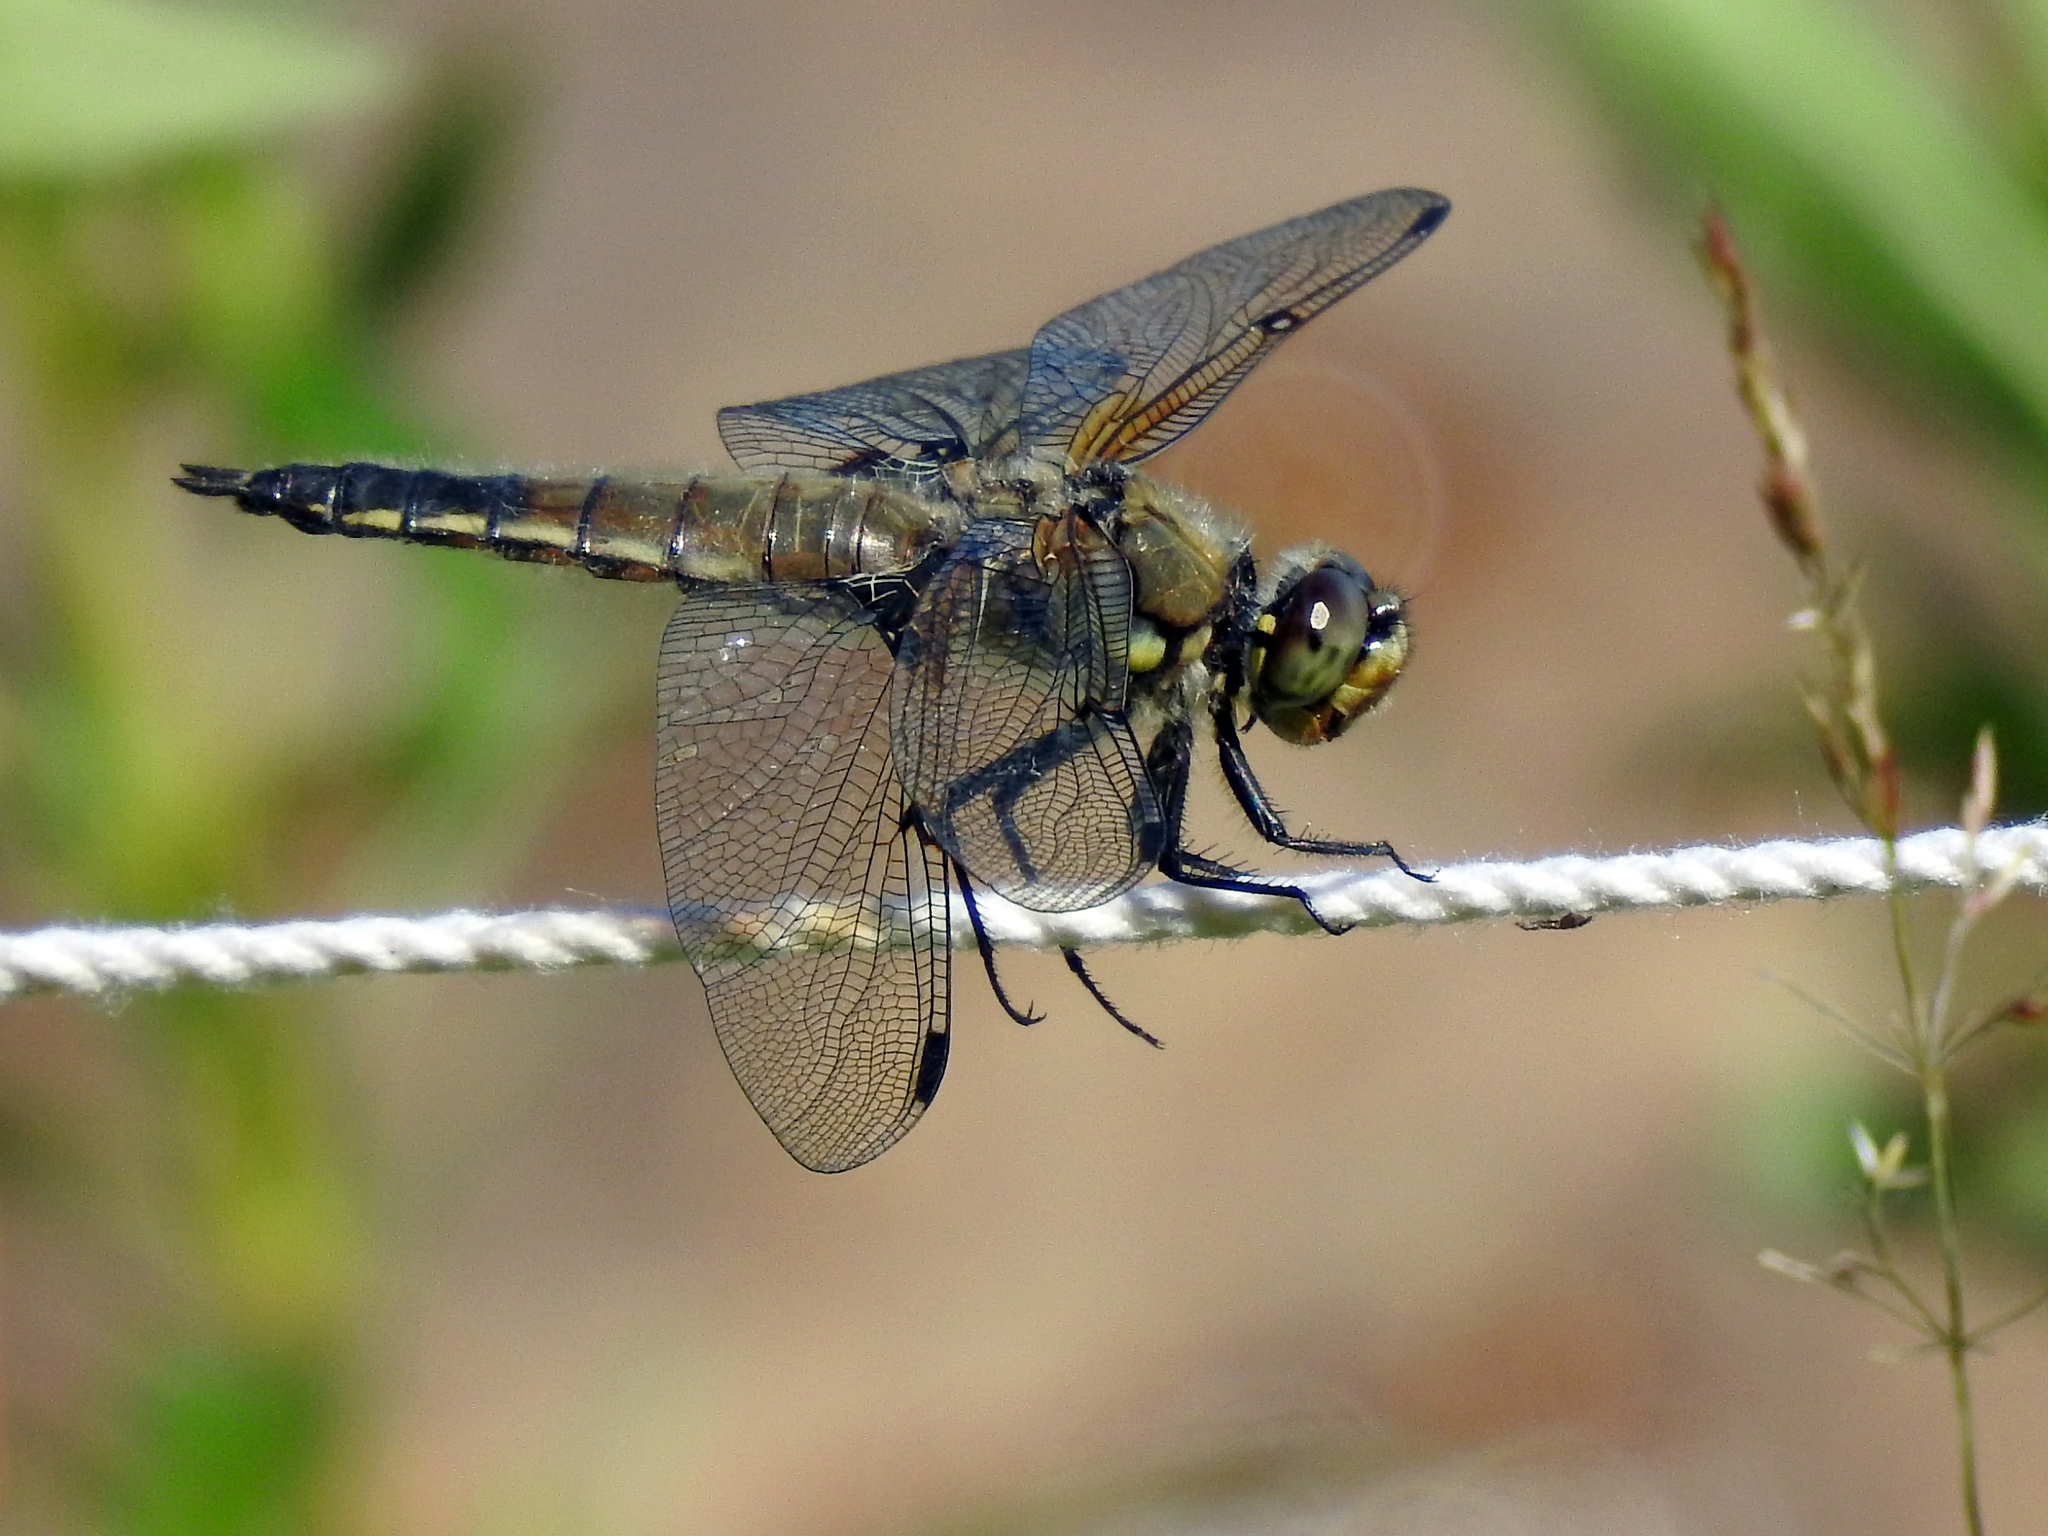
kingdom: Animalia
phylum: Arthropoda
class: Insecta
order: Odonata
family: Libellulidae
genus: Libellula
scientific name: Libellula quadrimaculata
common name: Four-spotted chaser
